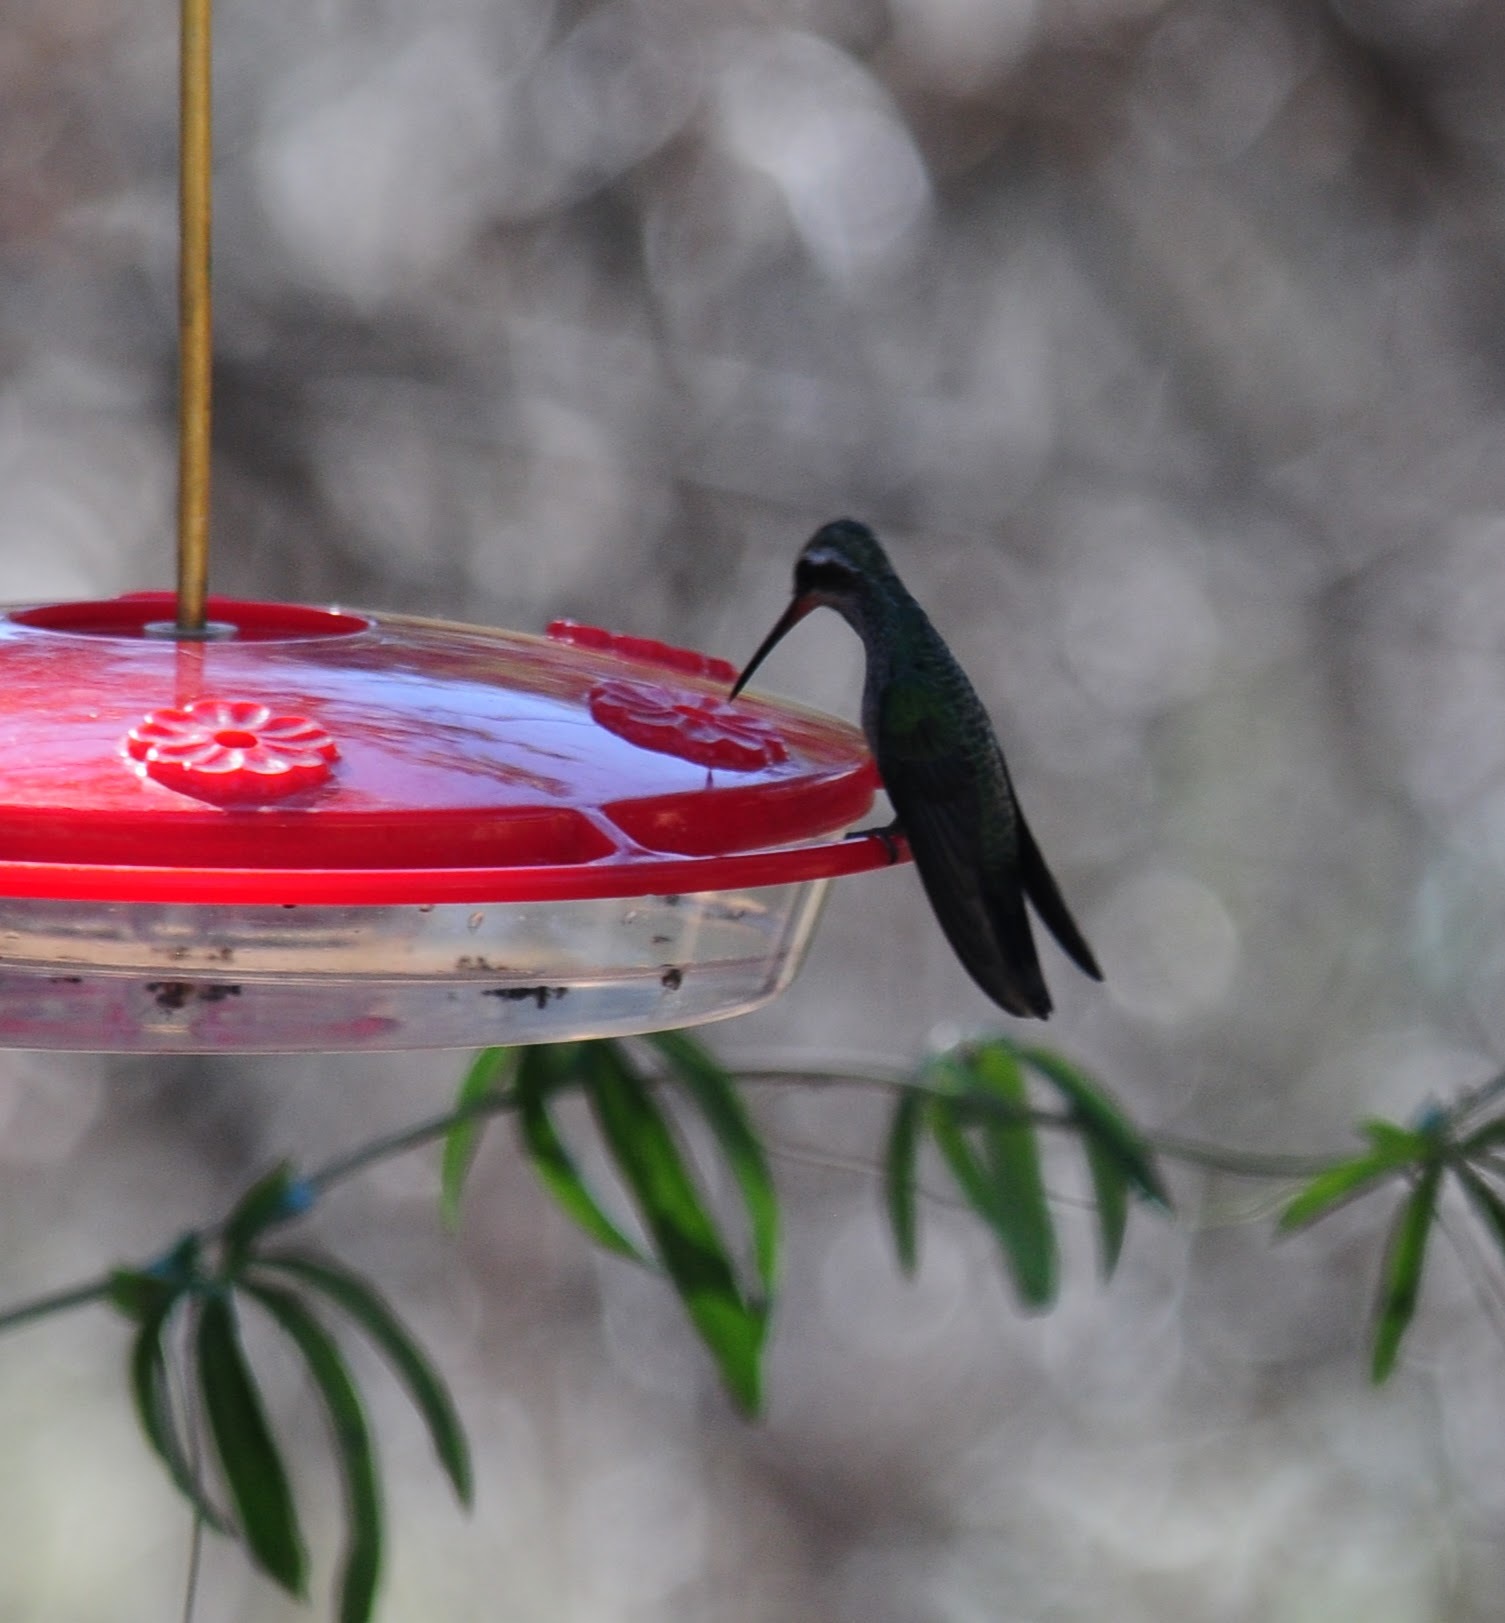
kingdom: Animalia
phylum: Chordata
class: Aves
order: Apodiformes
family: Trochilidae
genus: Cynanthus
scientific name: Cynanthus latirostris
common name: Broad-billed hummingbird
